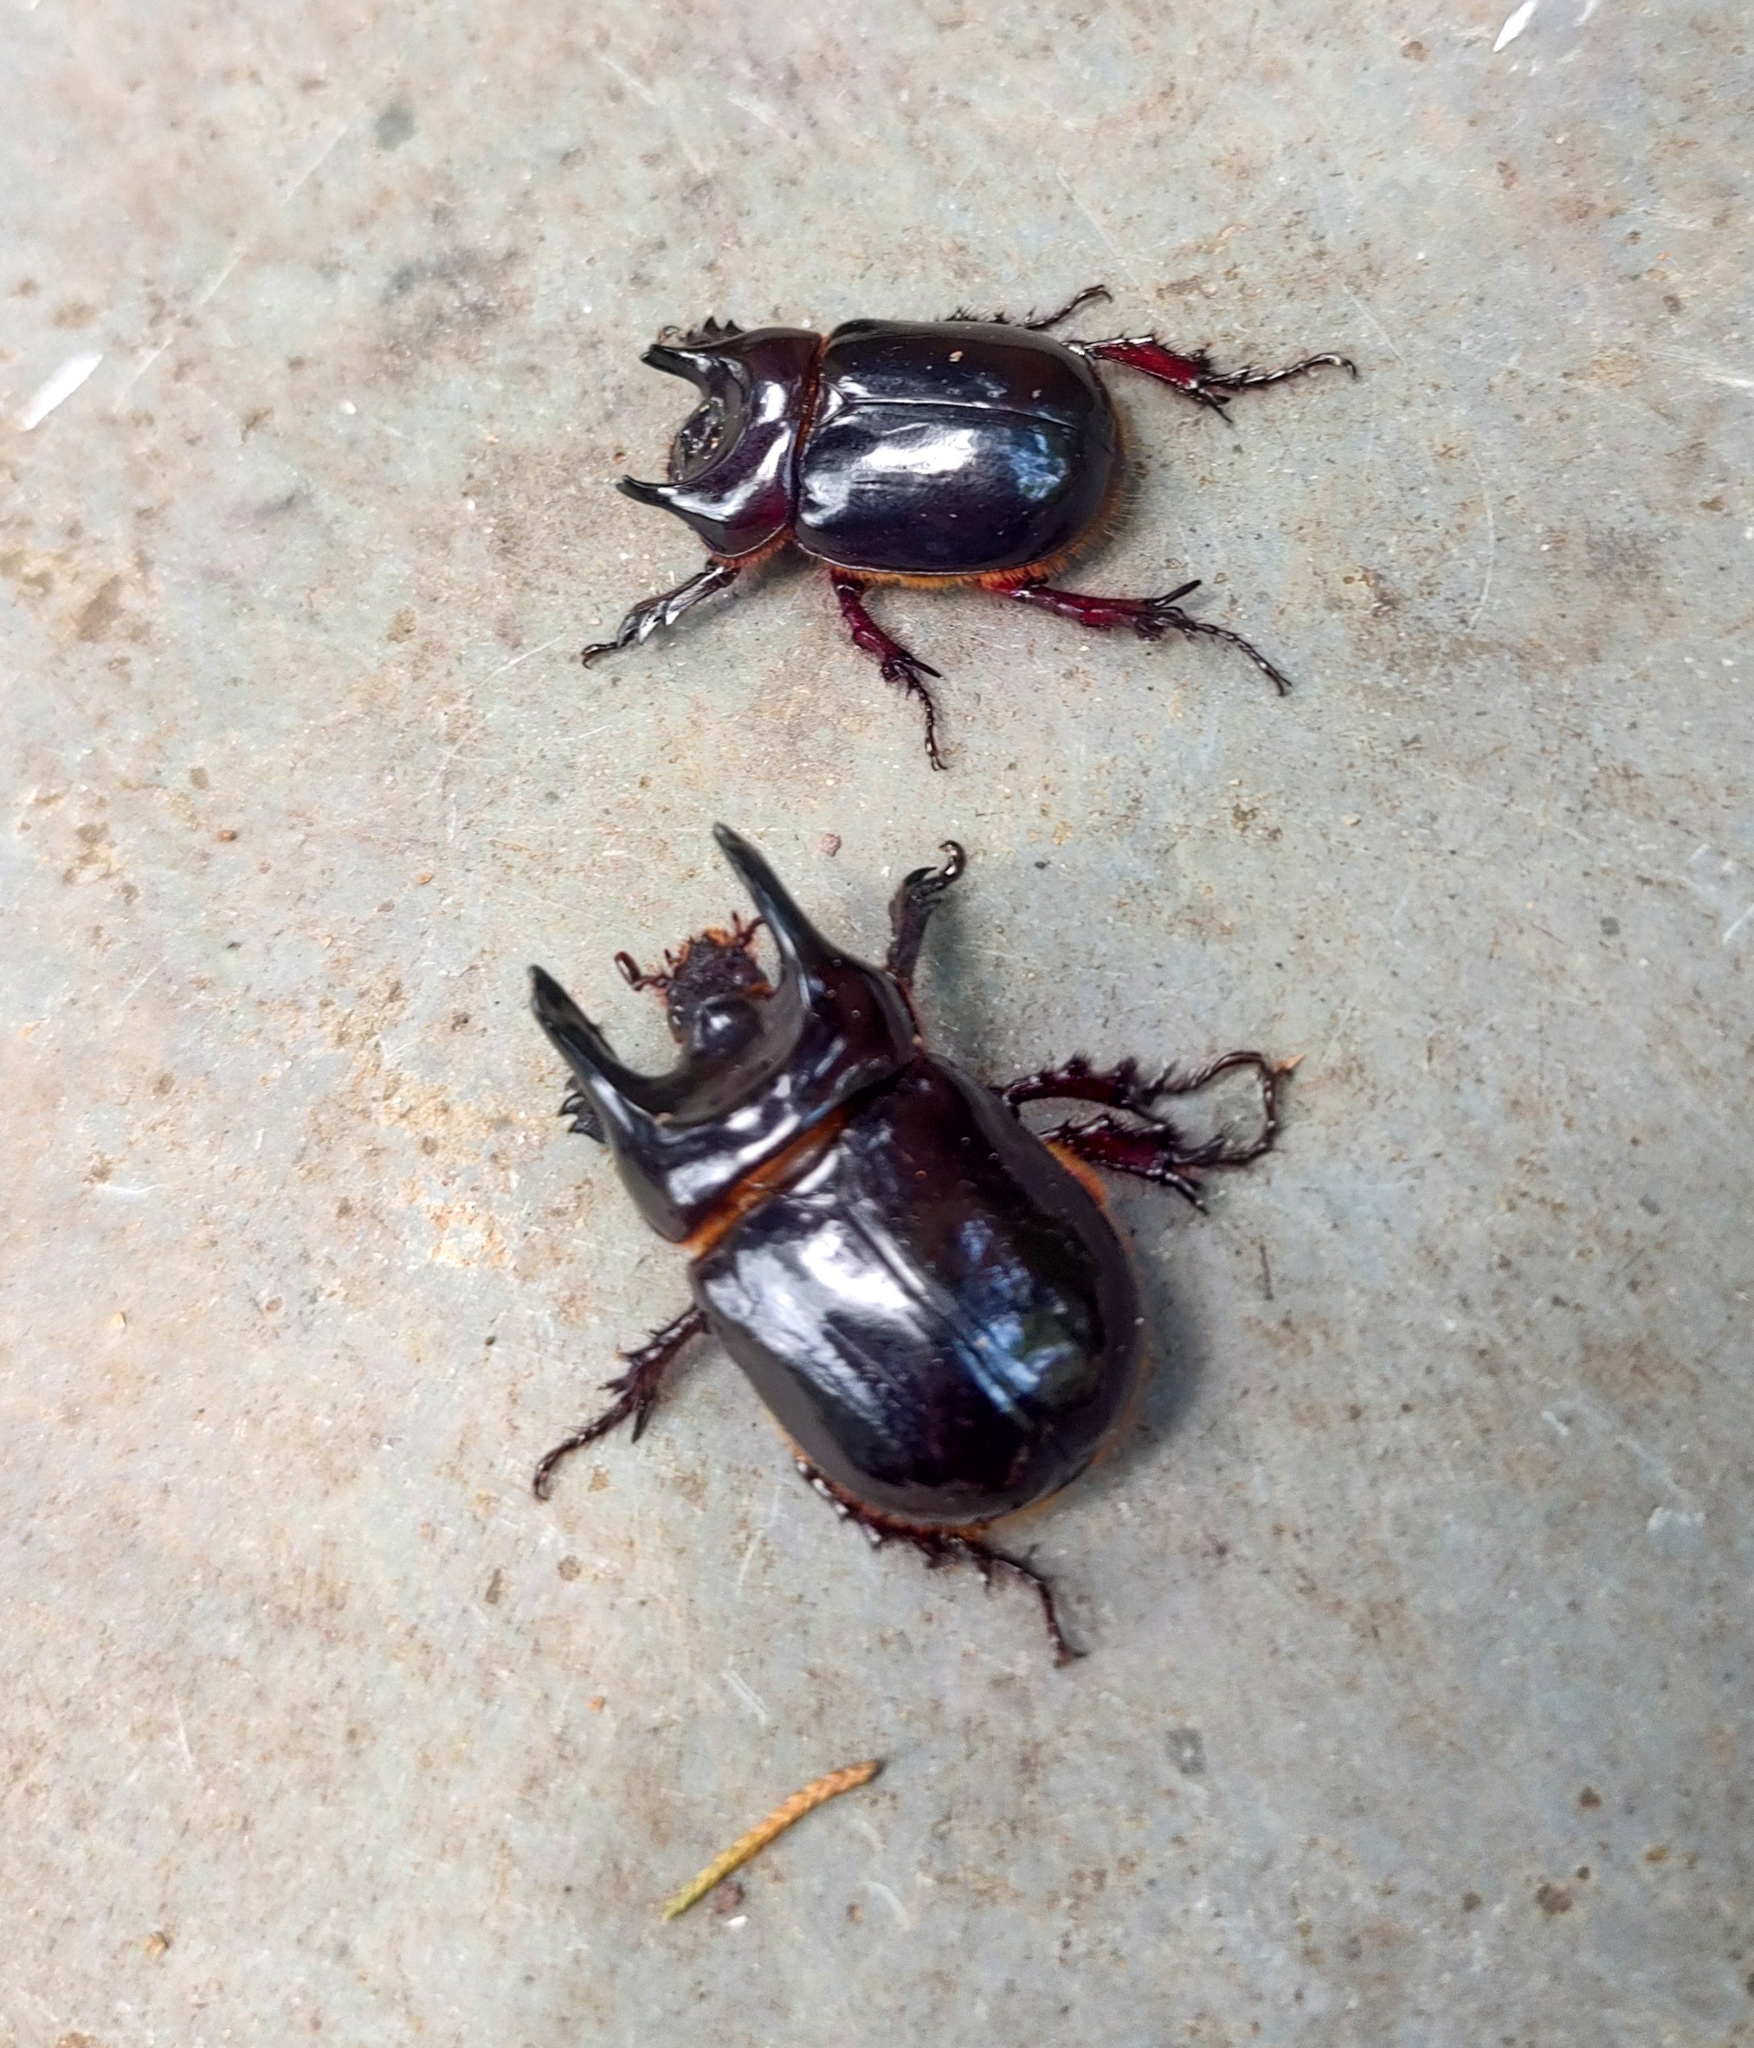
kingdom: Animalia
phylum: Arthropoda
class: Insecta
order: Coleoptera
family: Scarabaeidae
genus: Bothynus
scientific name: Bothynus entellus
